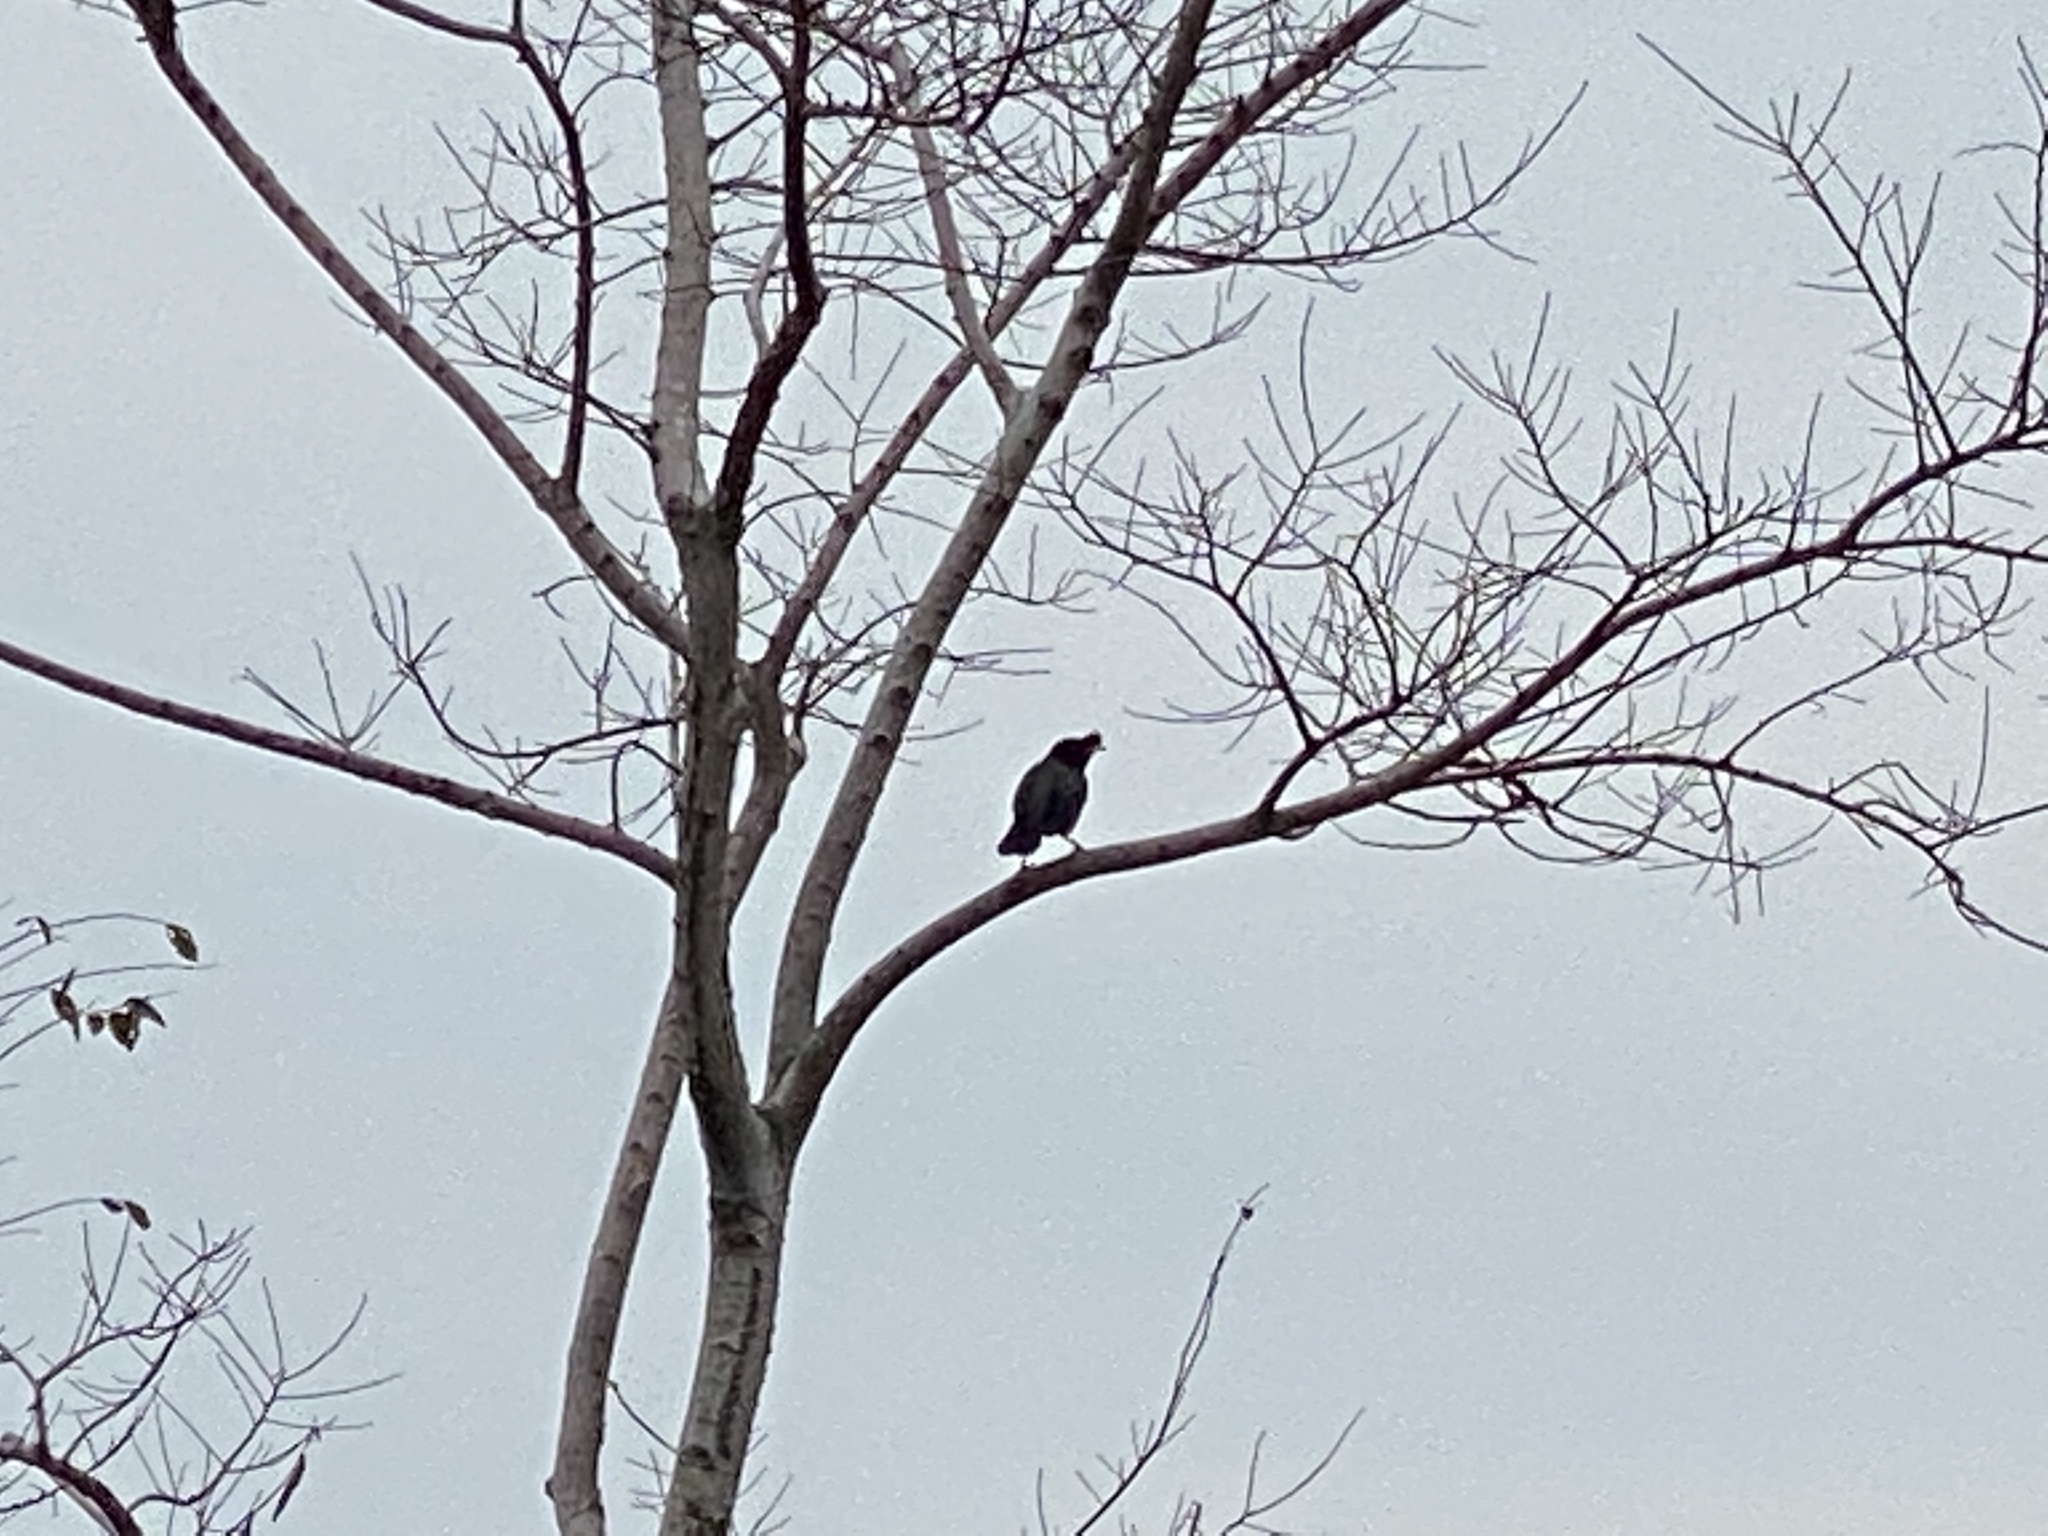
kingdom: Animalia
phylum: Chordata
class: Aves
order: Passeriformes
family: Sturnidae
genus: Acridotheres
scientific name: Acridotheres cristatellus
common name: Crested myna
